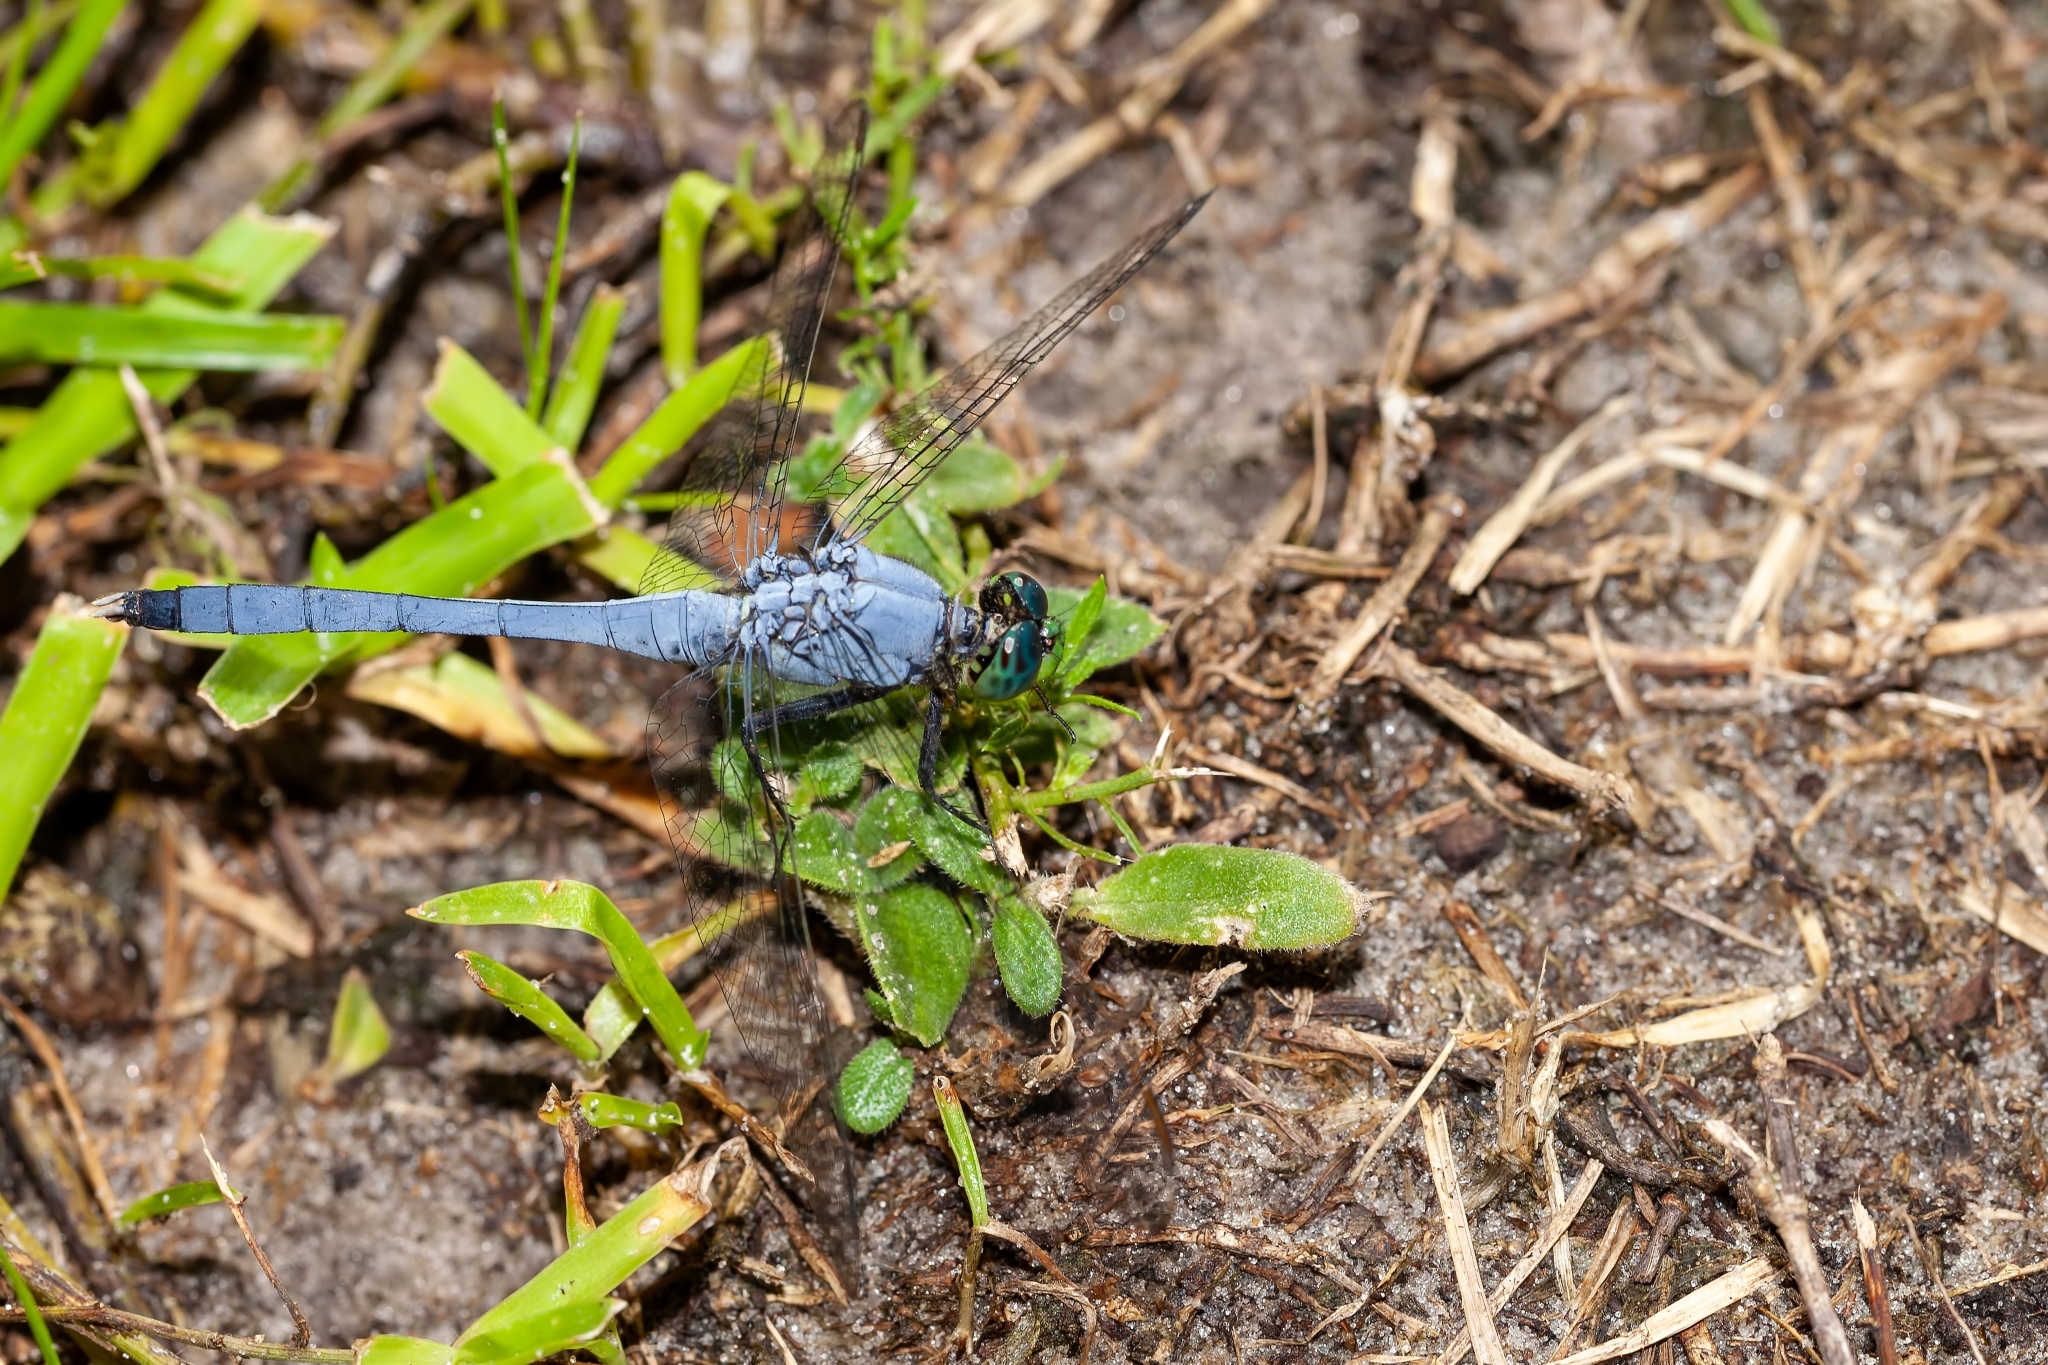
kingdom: Animalia
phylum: Arthropoda
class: Insecta
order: Odonata
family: Libellulidae
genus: Erythemis
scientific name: Erythemis simplicicollis
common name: Eastern pondhawk
